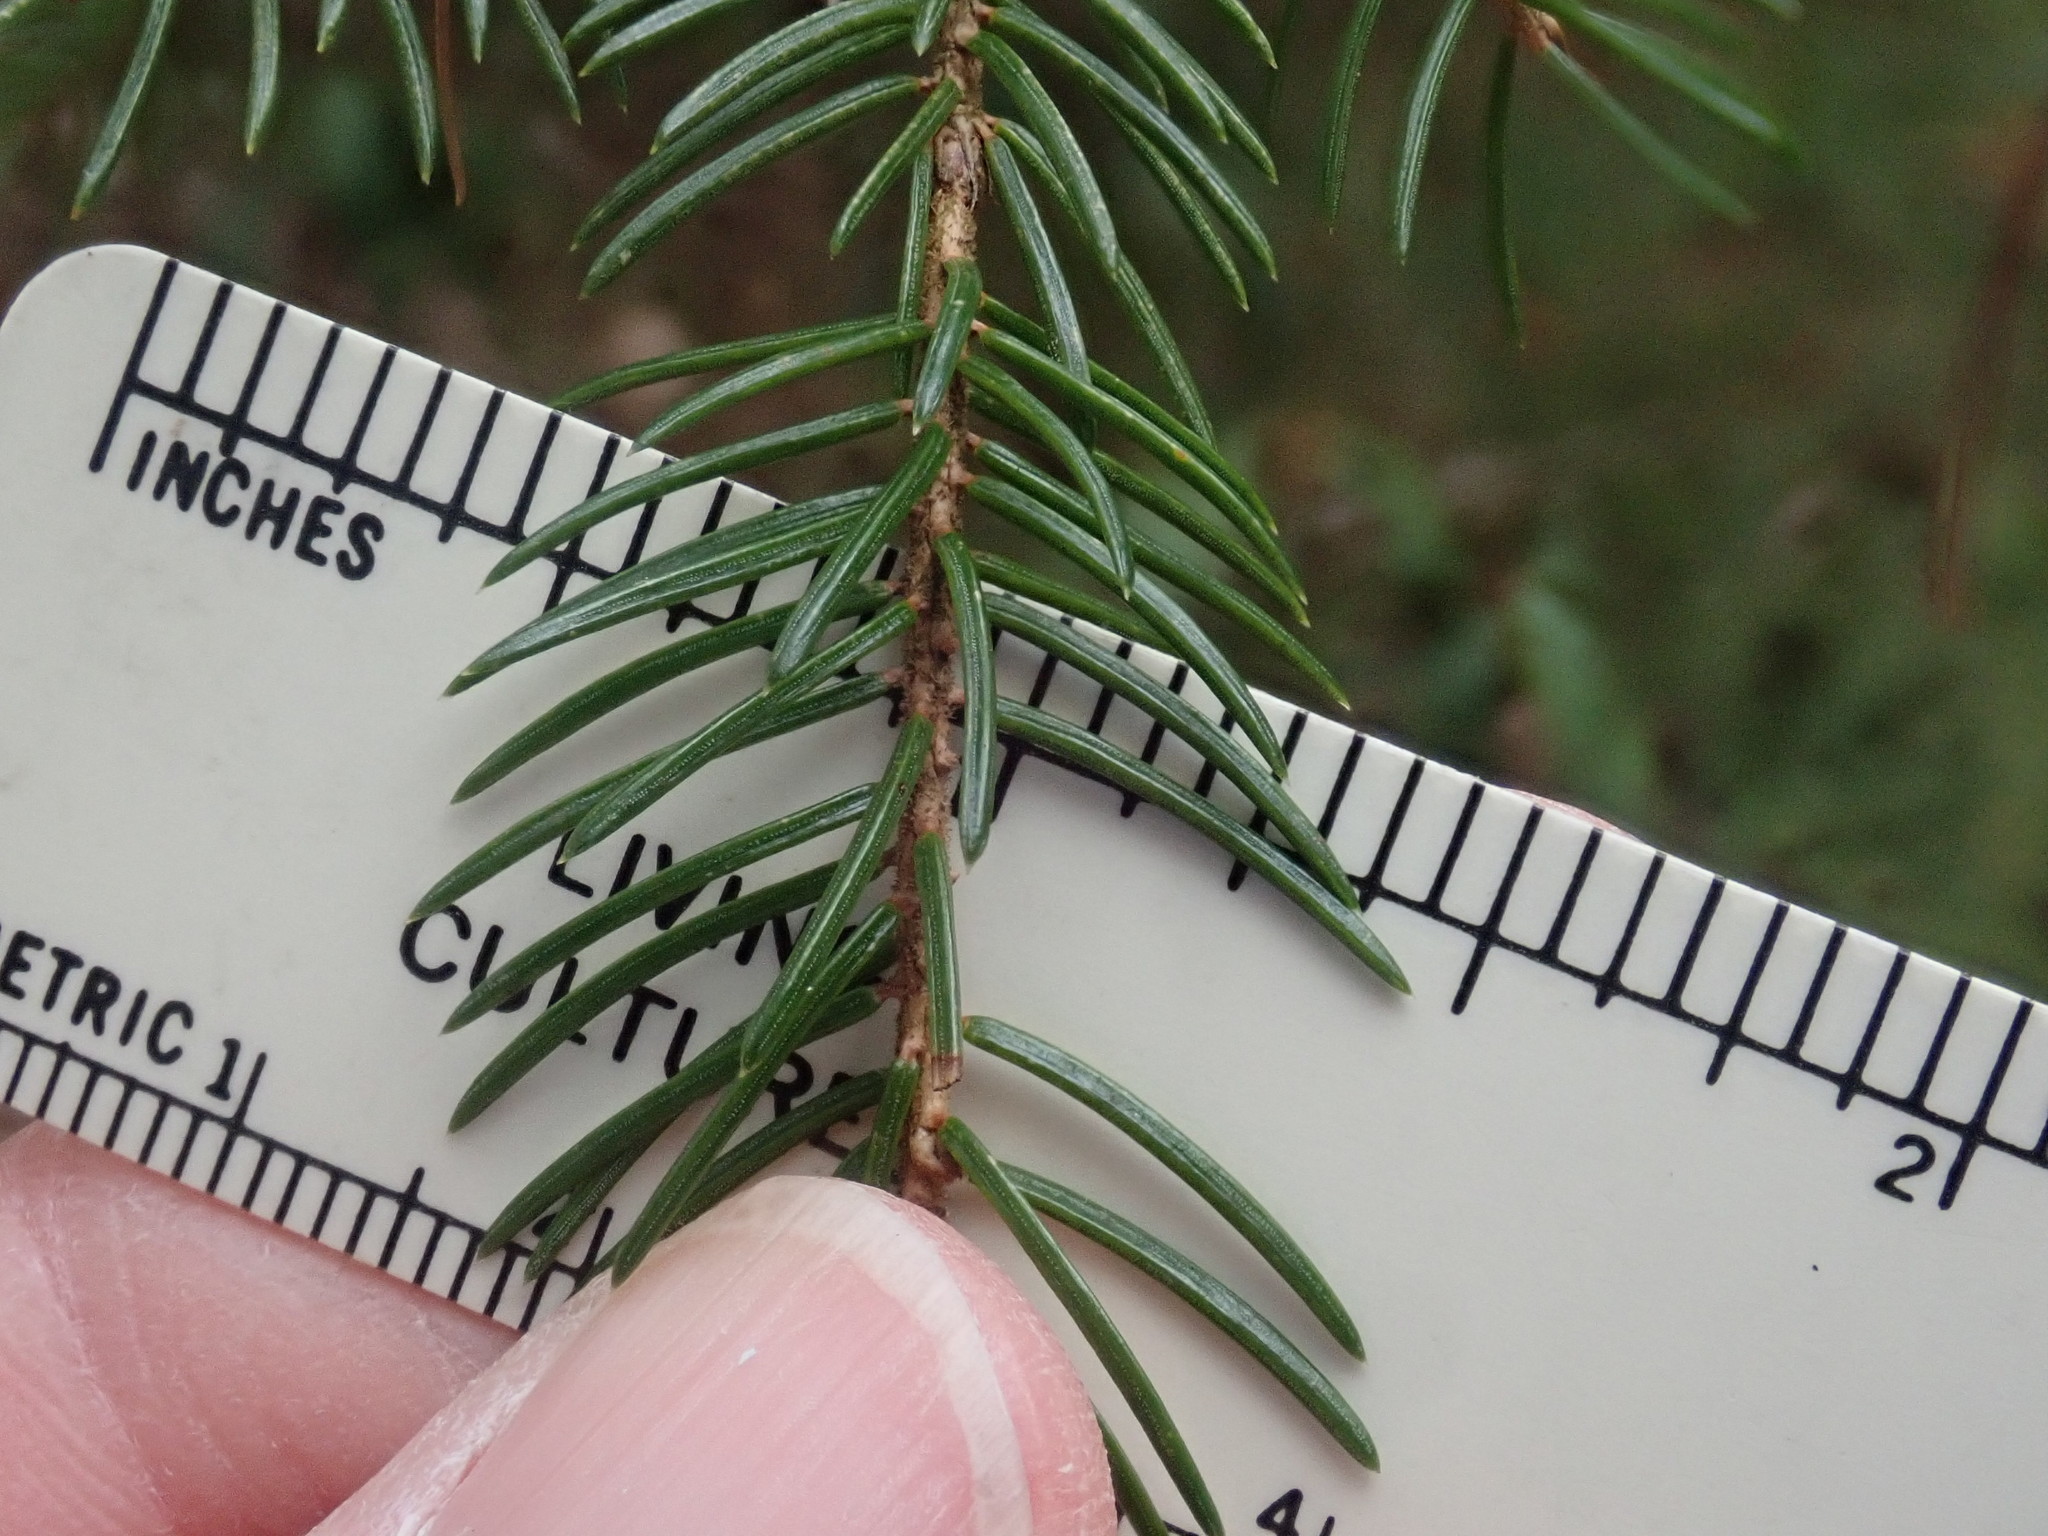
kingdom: Plantae
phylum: Tracheophyta
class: Pinopsida
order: Pinales
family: Pinaceae
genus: Picea
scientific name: Picea rubens
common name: Red spruce
